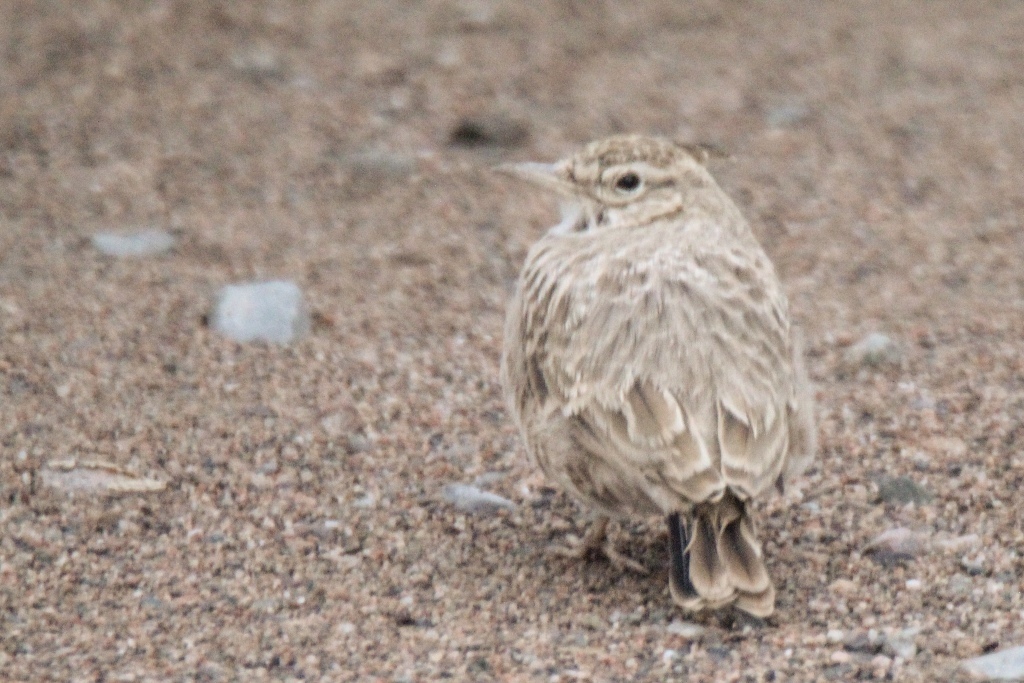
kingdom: Animalia
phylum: Chordata
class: Aves
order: Passeriformes
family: Alaudidae
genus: Galerida
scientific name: Galerida cristata
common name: Crested lark
